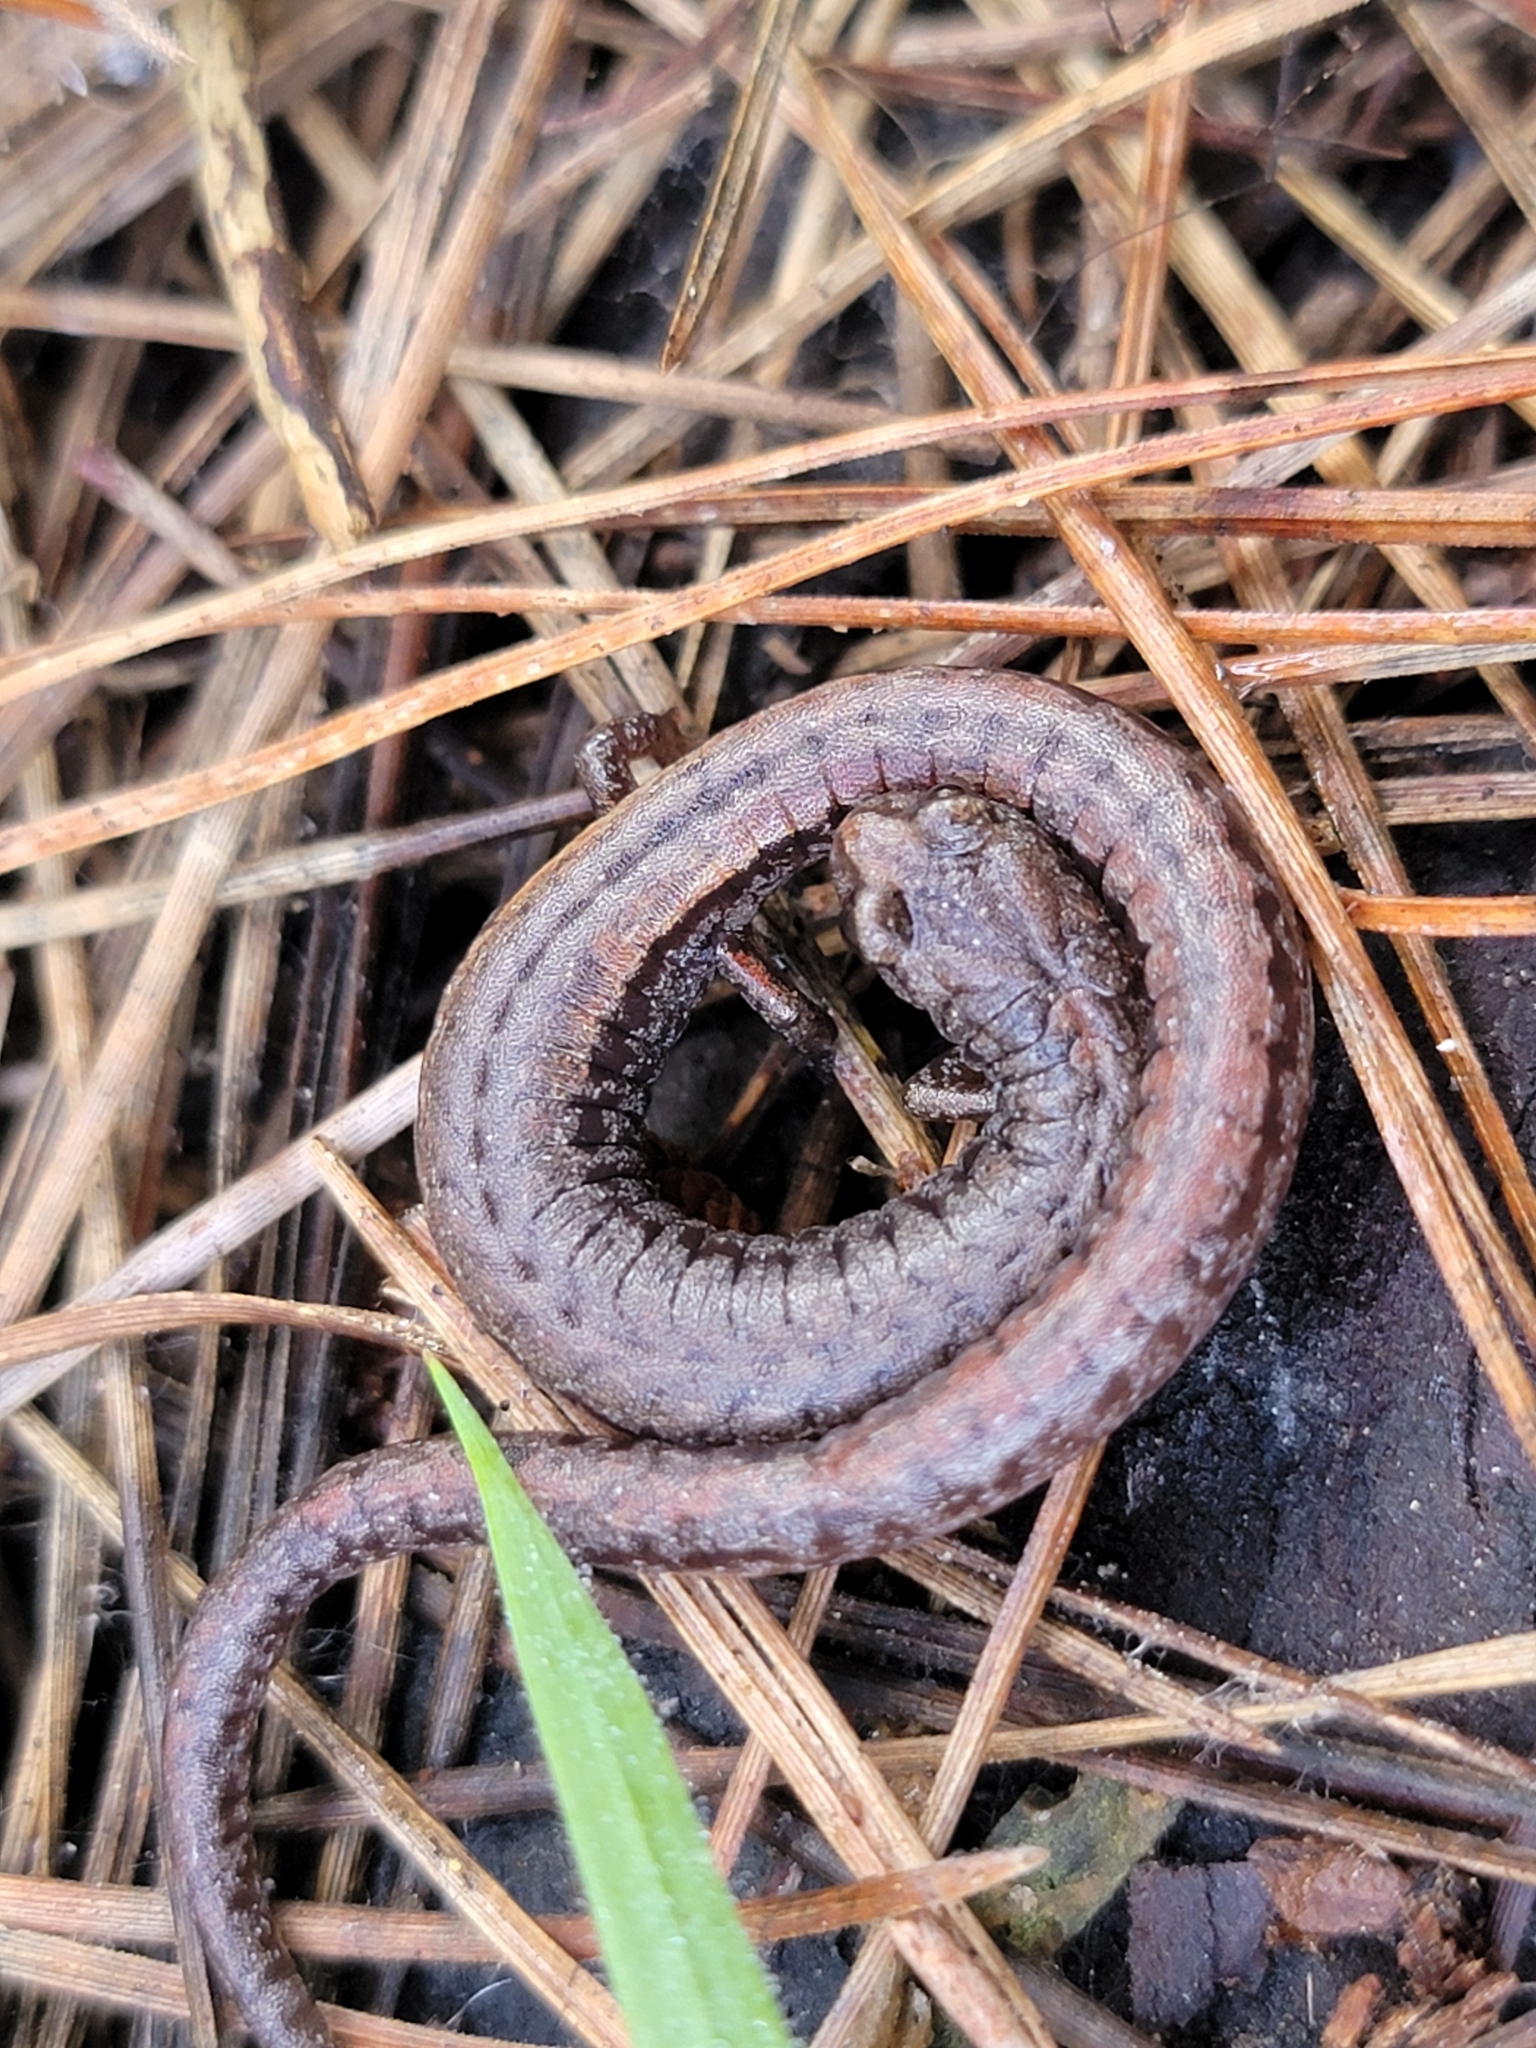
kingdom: Animalia
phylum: Chordata
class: Amphibia
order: Caudata
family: Plethodontidae
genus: Batrachoseps
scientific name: Batrachoseps luciae
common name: Santa lucia mountains slender salamander
